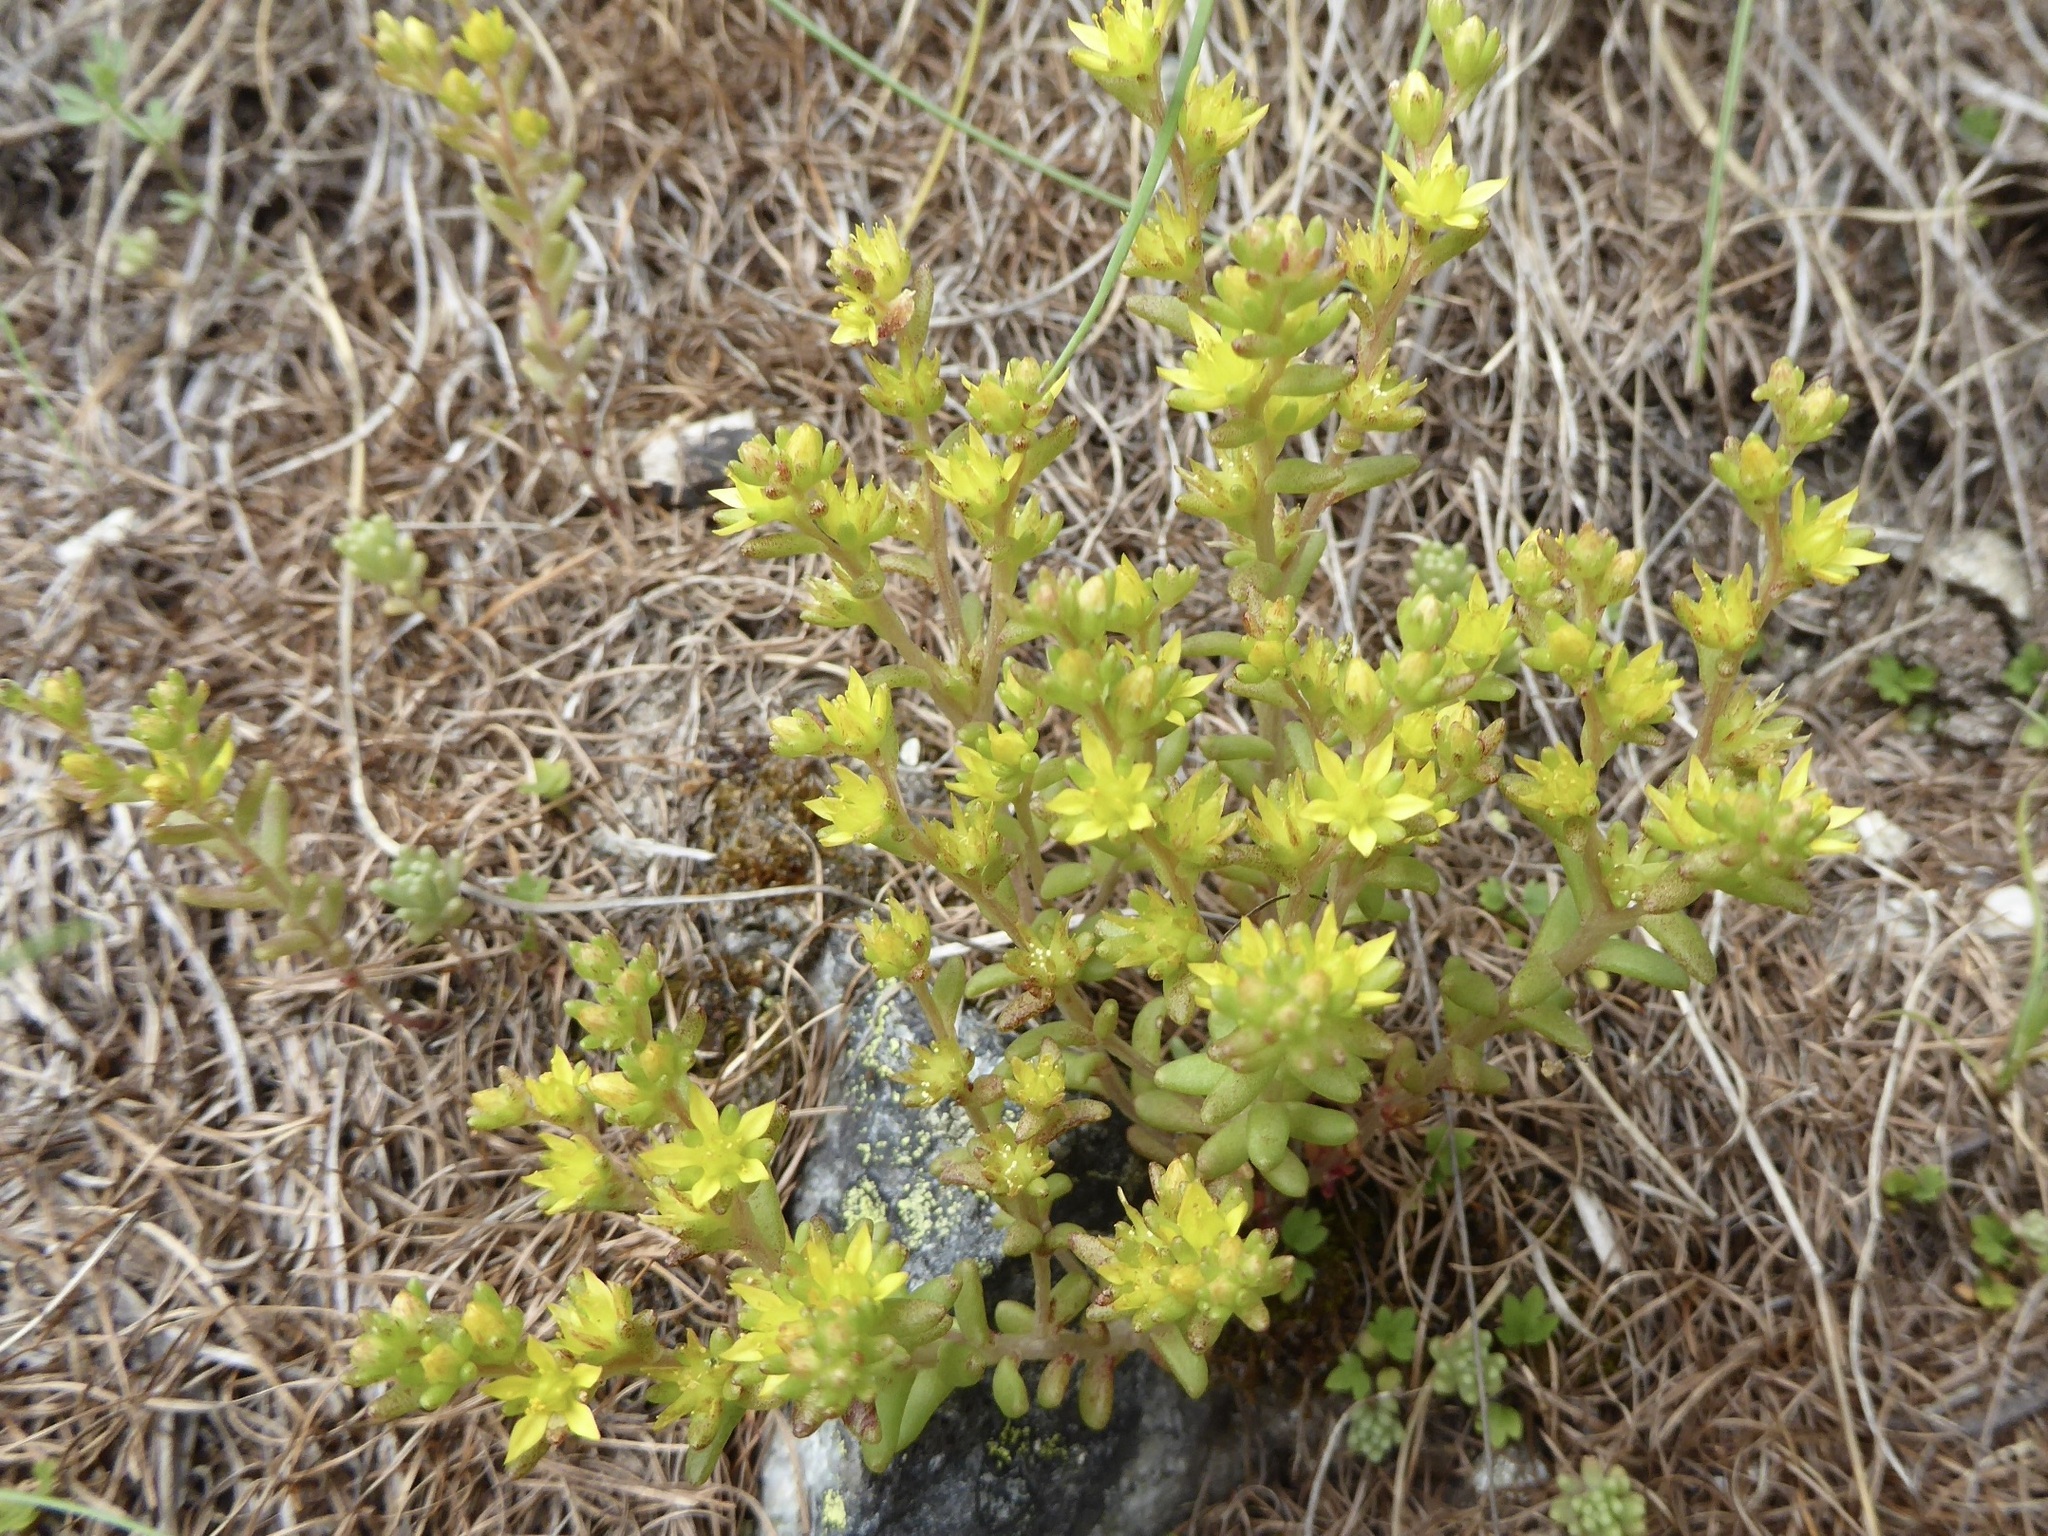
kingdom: Plantae
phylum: Tracheophyta
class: Magnoliopsida
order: Saxifragales
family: Crassulaceae
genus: Sedum
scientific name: Sedum annuum
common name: Annual stonecrop
